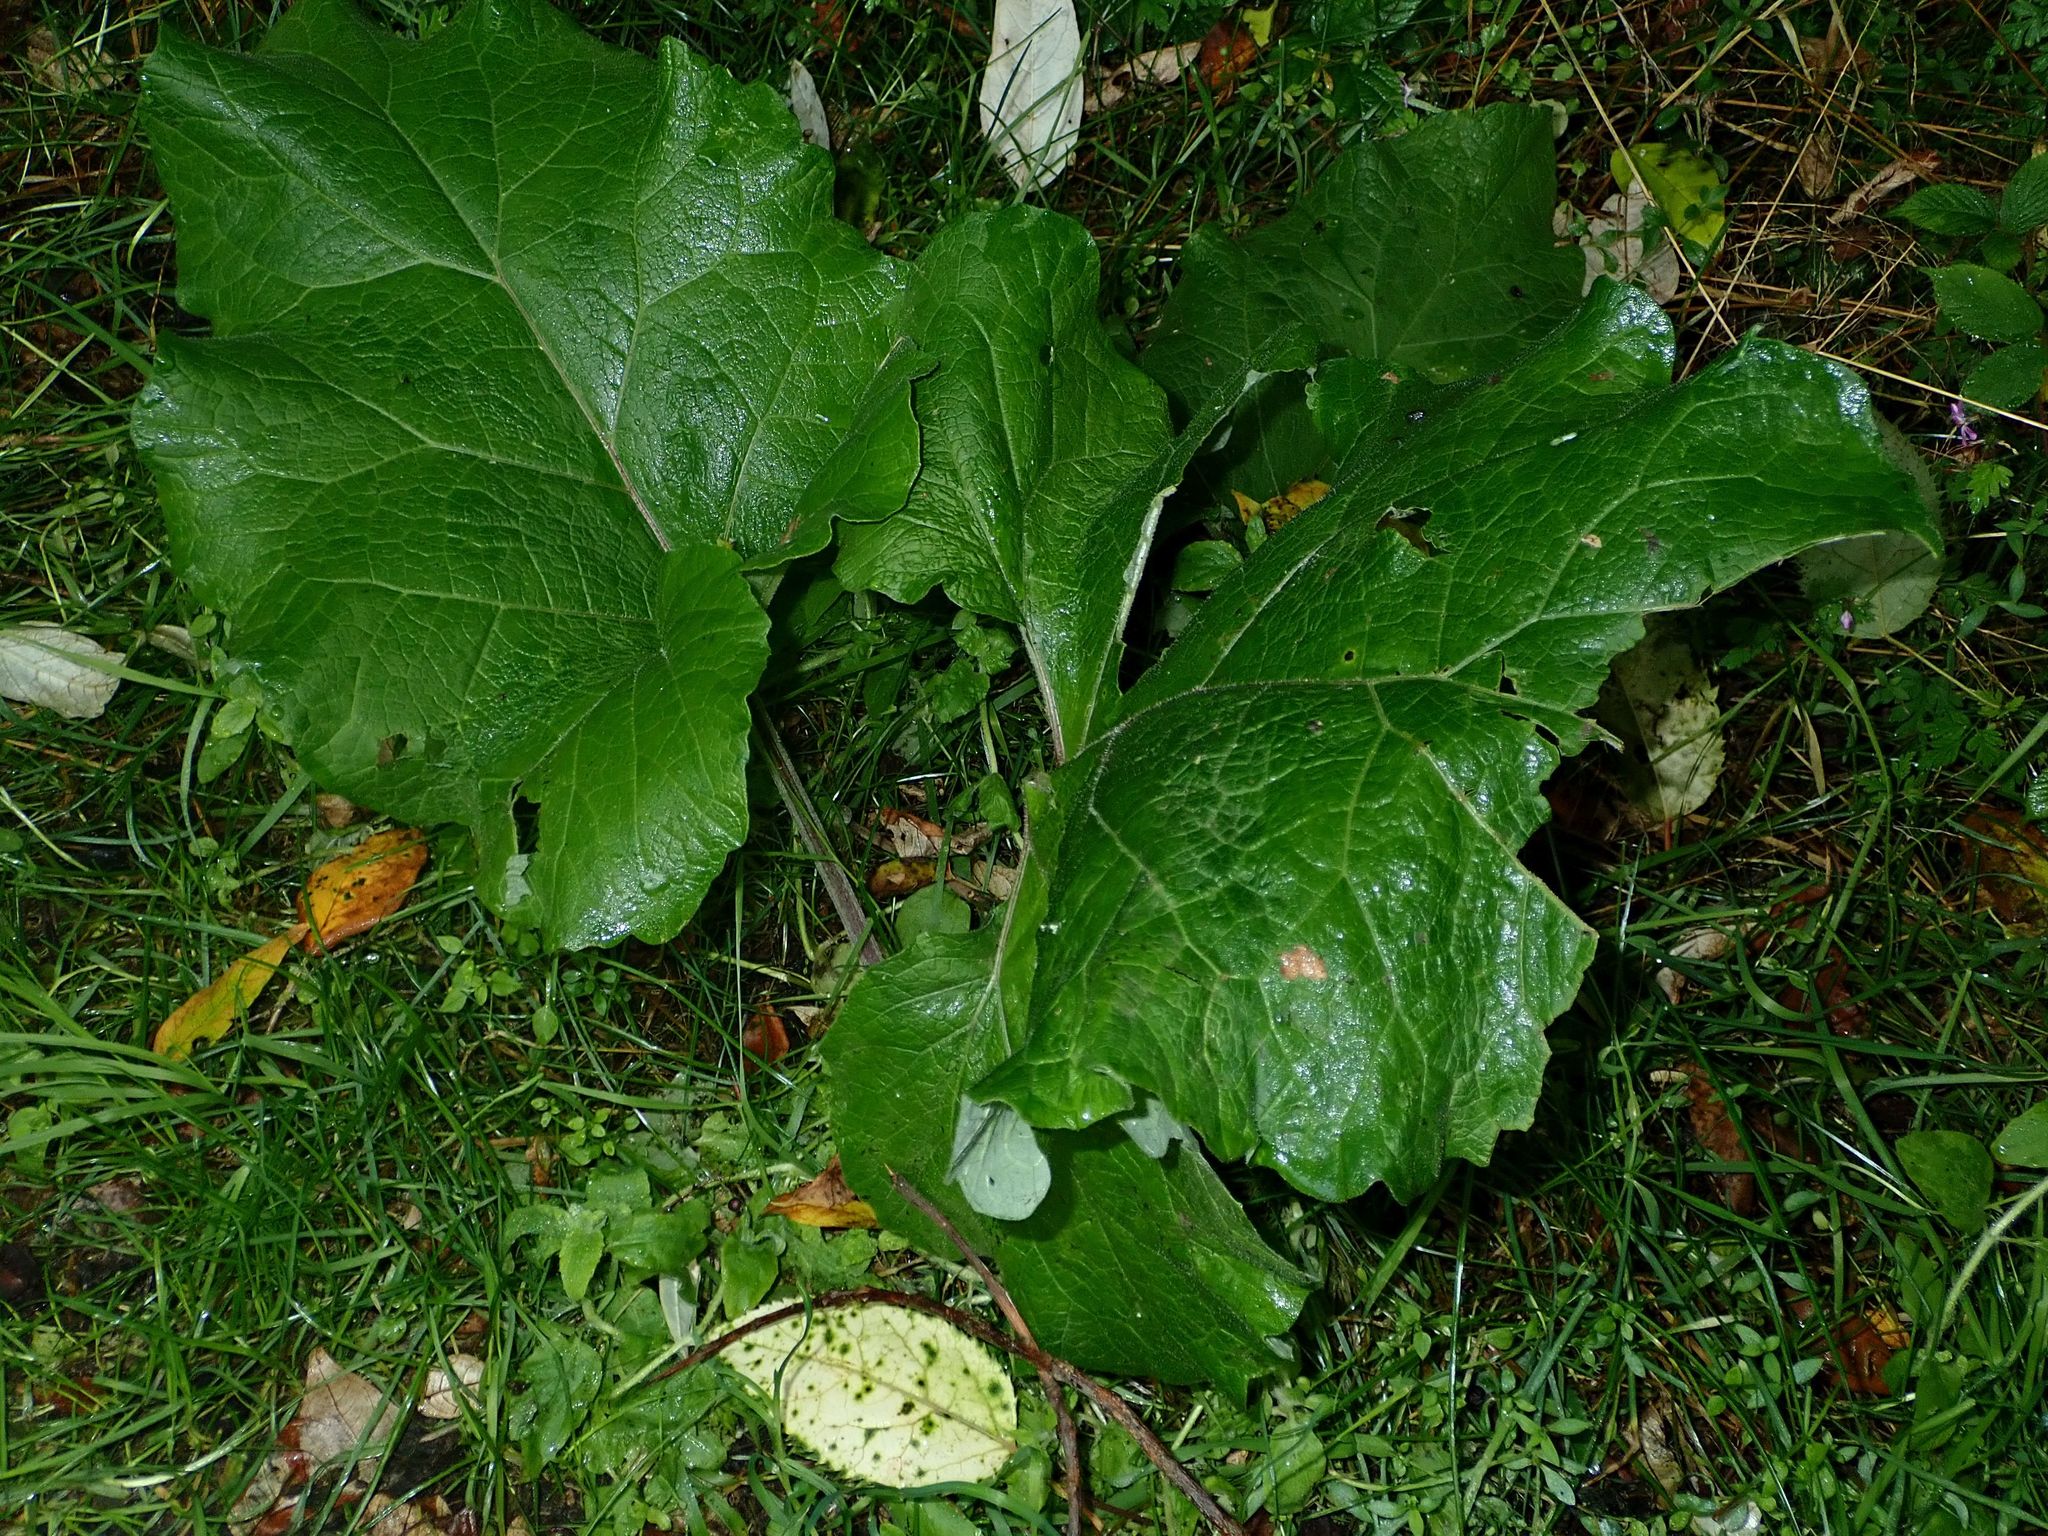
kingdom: Plantae
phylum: Tracheophyta
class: Magnoliopsida
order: Asterales
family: Asteraceae
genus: Arctium
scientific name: Arctium minus
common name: Lesser burdock
